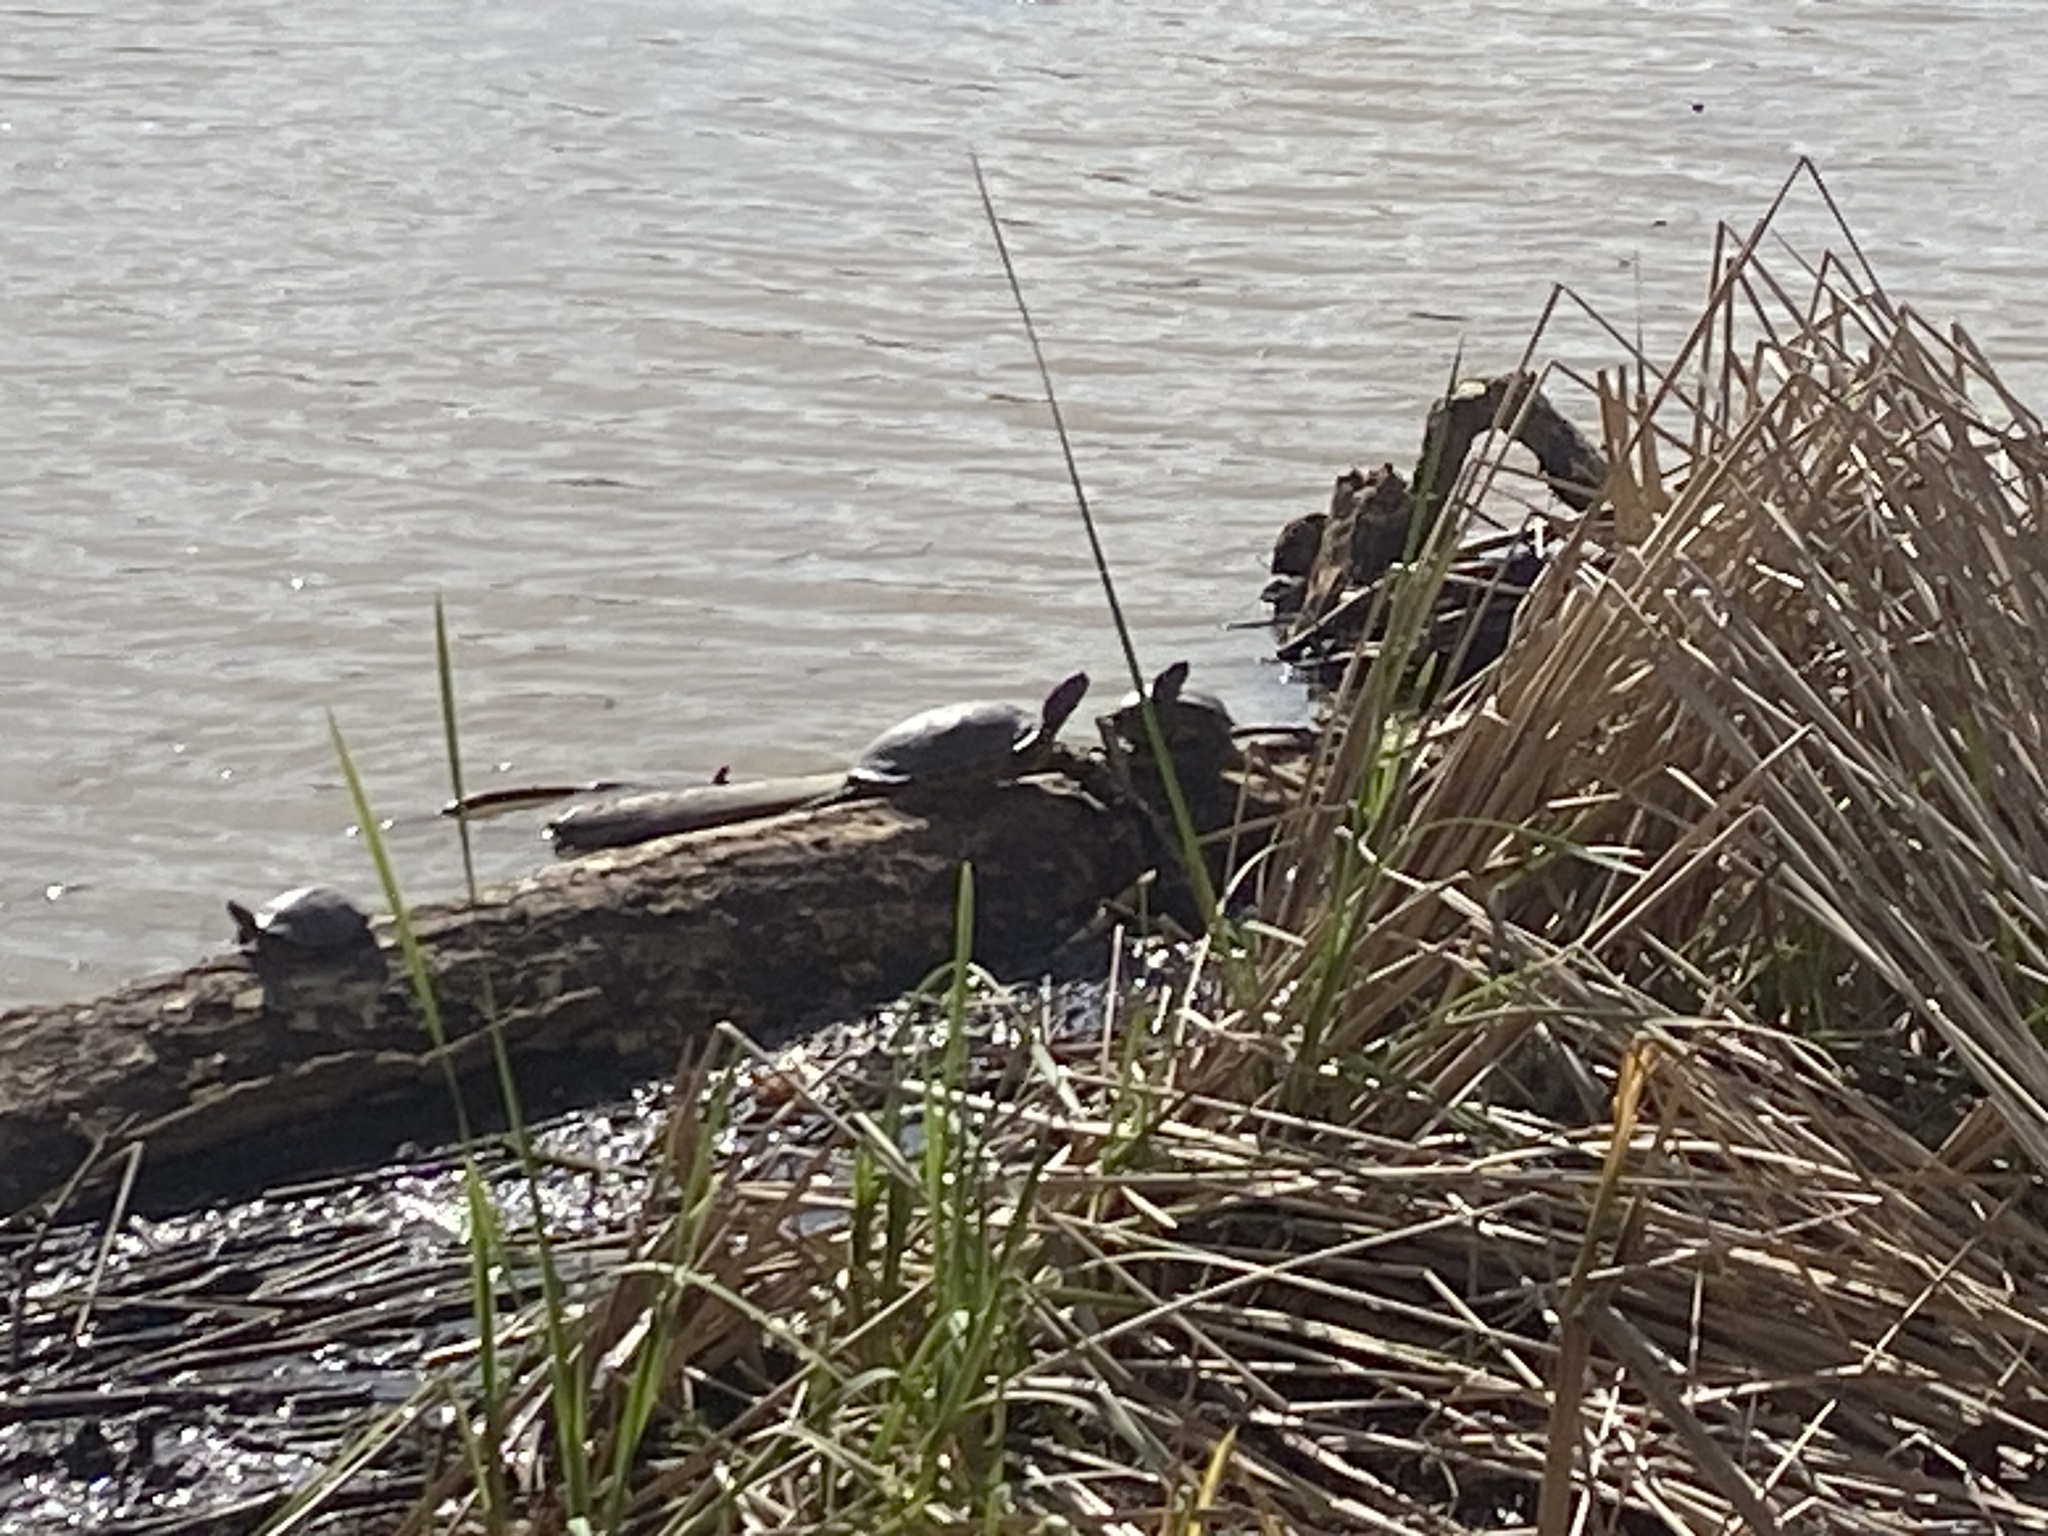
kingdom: Animalia
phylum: Chordata
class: Testudines
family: Emydidae
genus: Trachemys
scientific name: Trachemys scripta
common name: Slider
